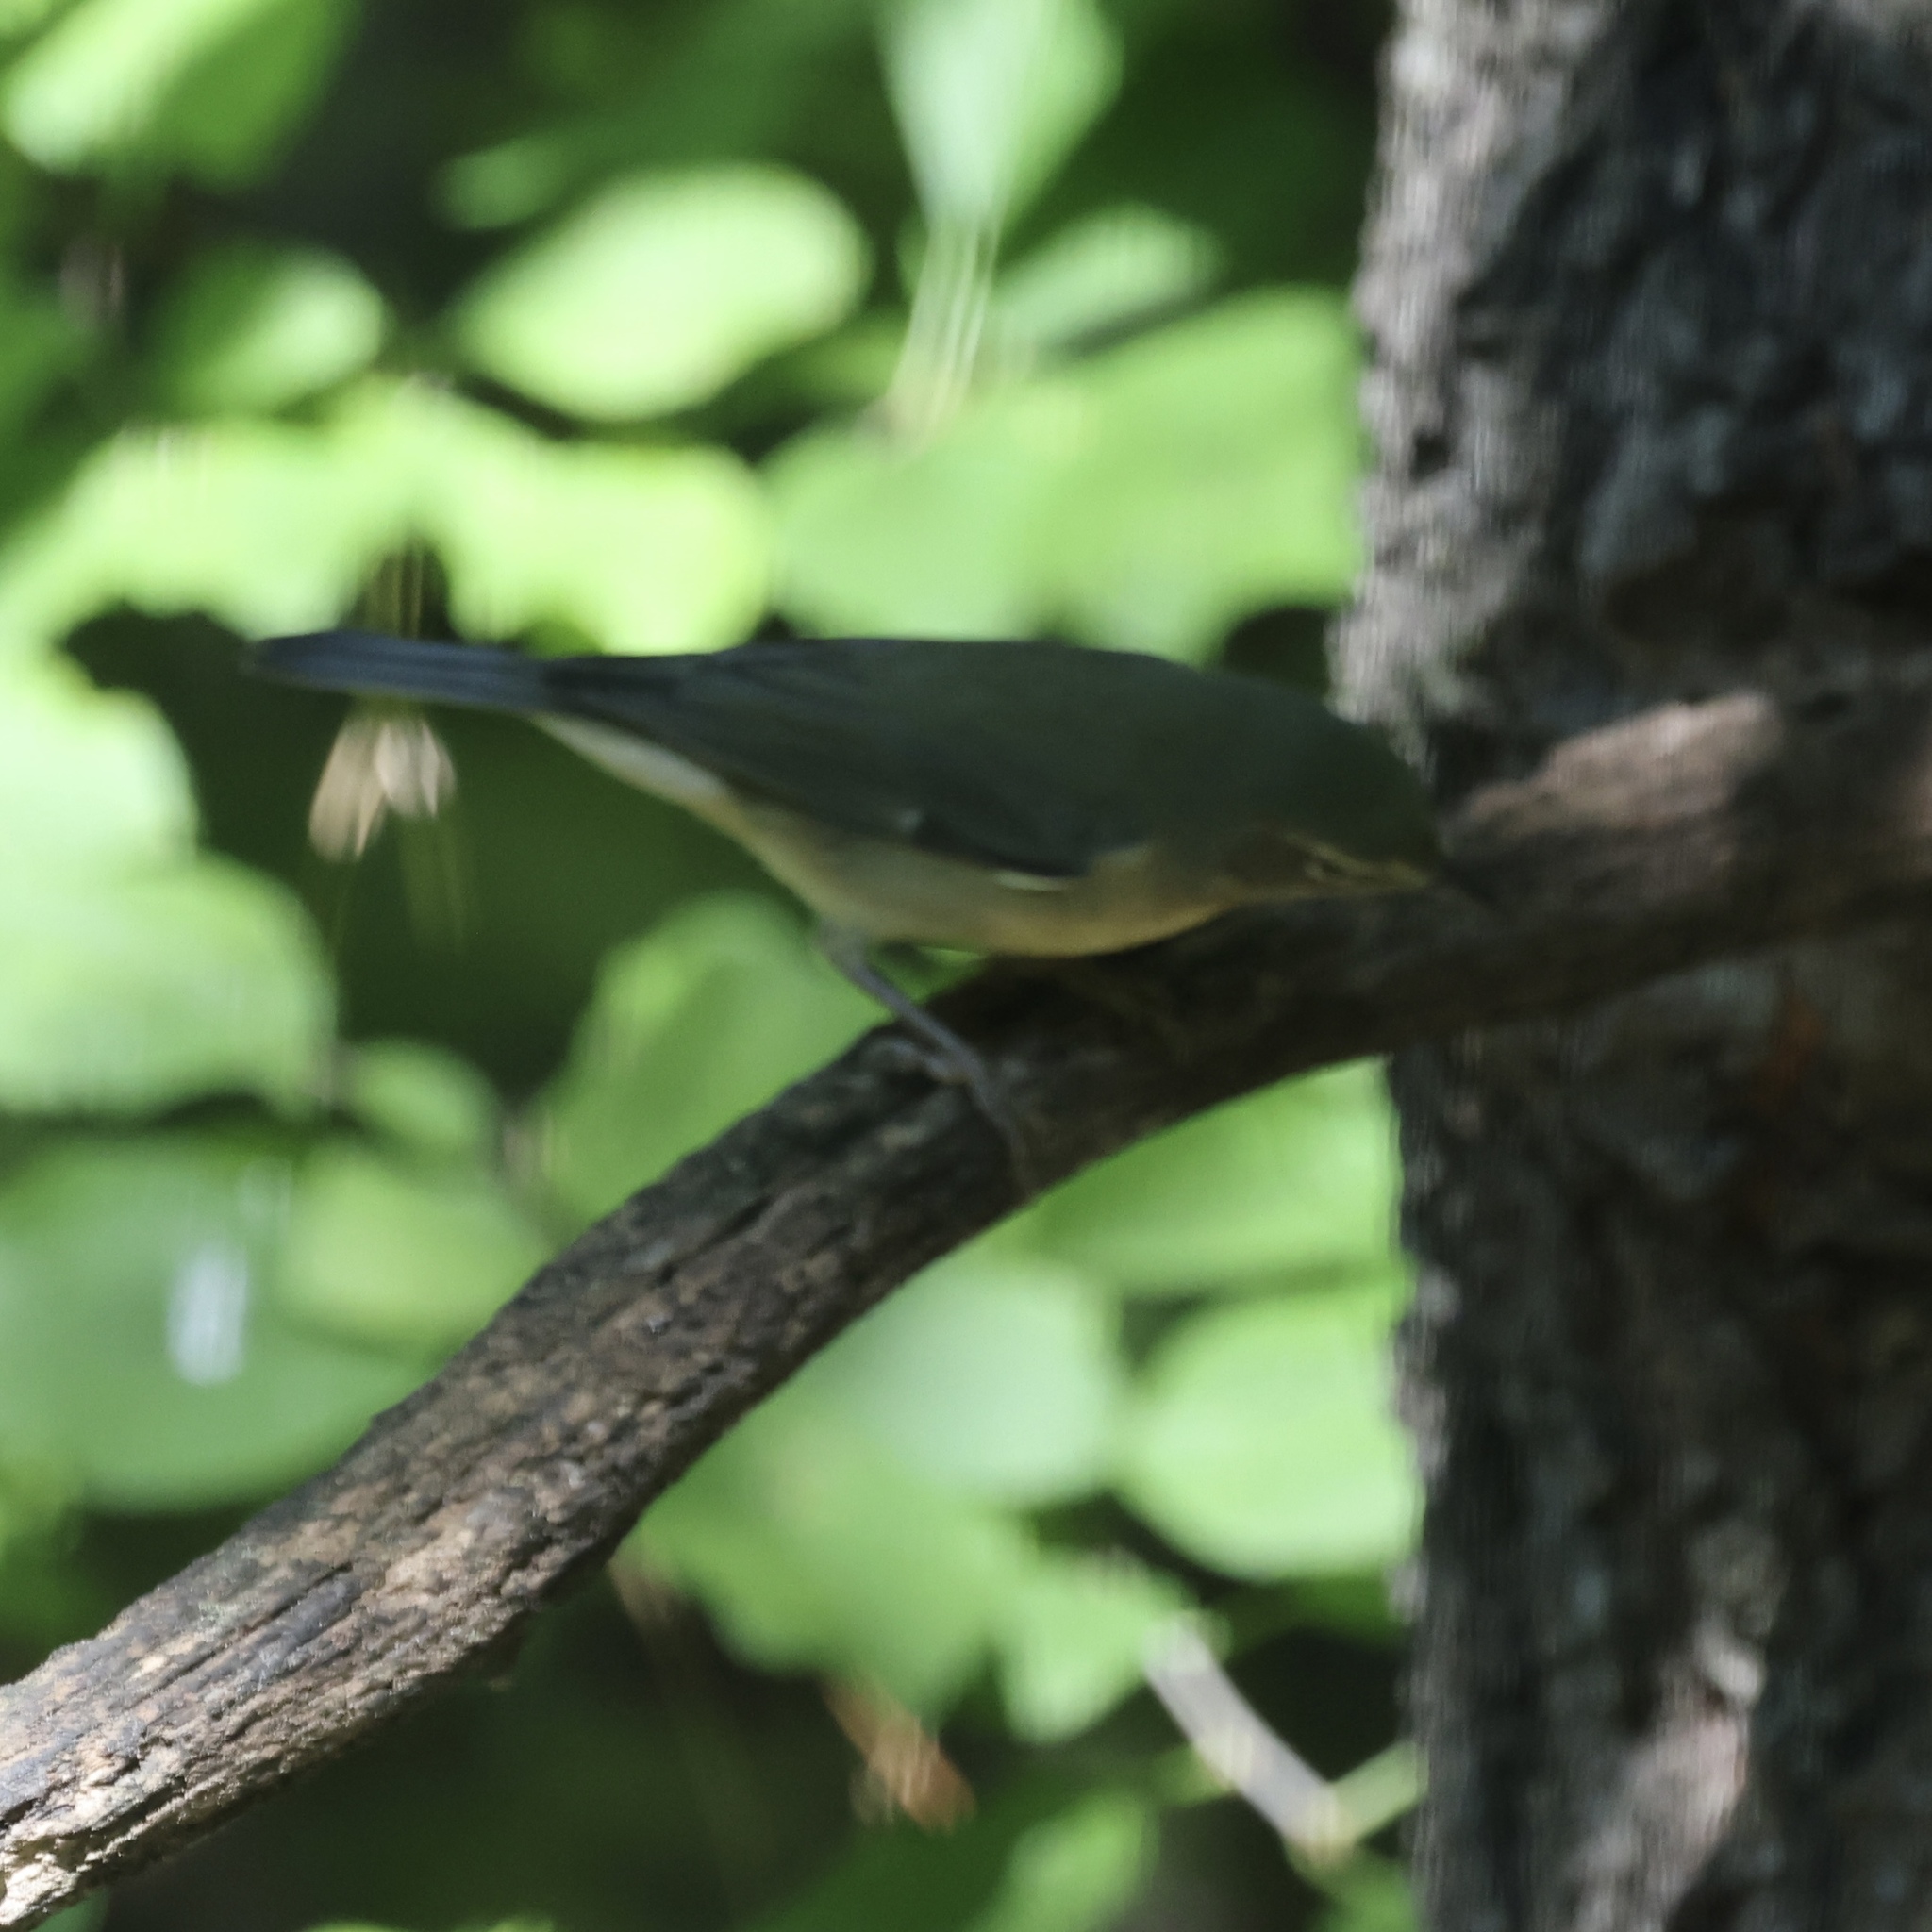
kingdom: Animalia
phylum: Chordata
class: Aves
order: Passeriformes
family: Parulidae
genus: Setophaga
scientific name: Setophaga caerulescens
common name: Black-throated blue warbler
